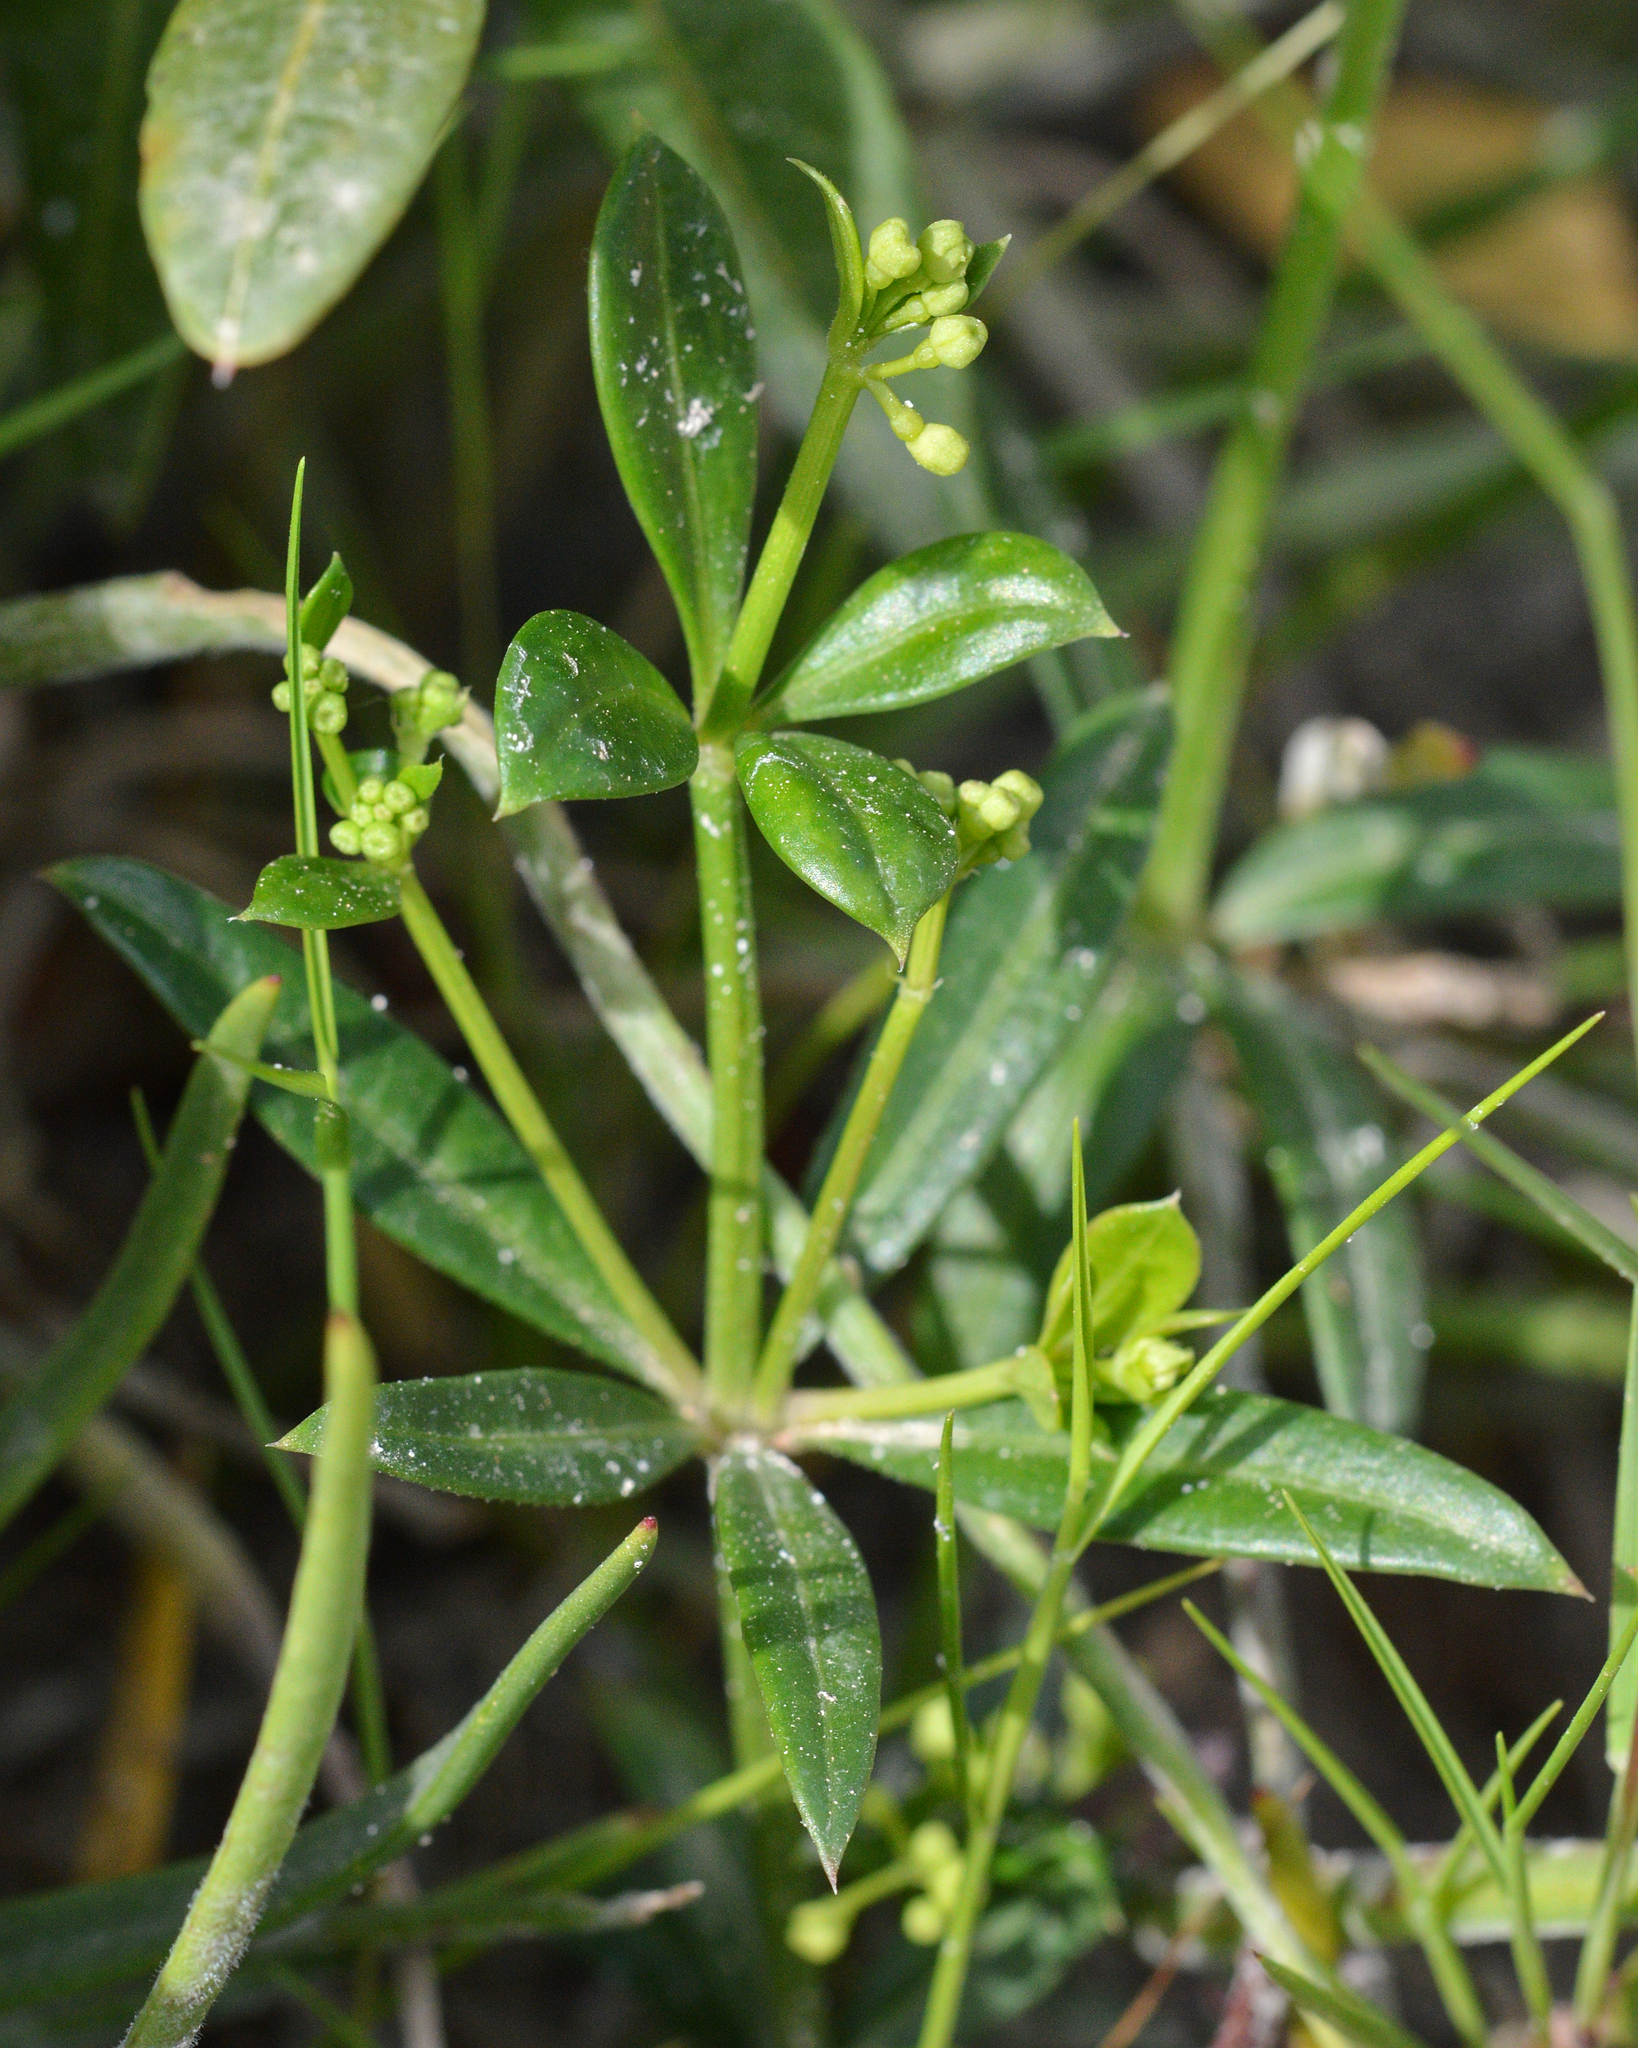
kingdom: Plantae
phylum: Tracheophyta
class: Magnoliopsida
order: Gentianales
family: Rubiaceae
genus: Rubia
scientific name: Rubia peregrina
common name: Wild madder
